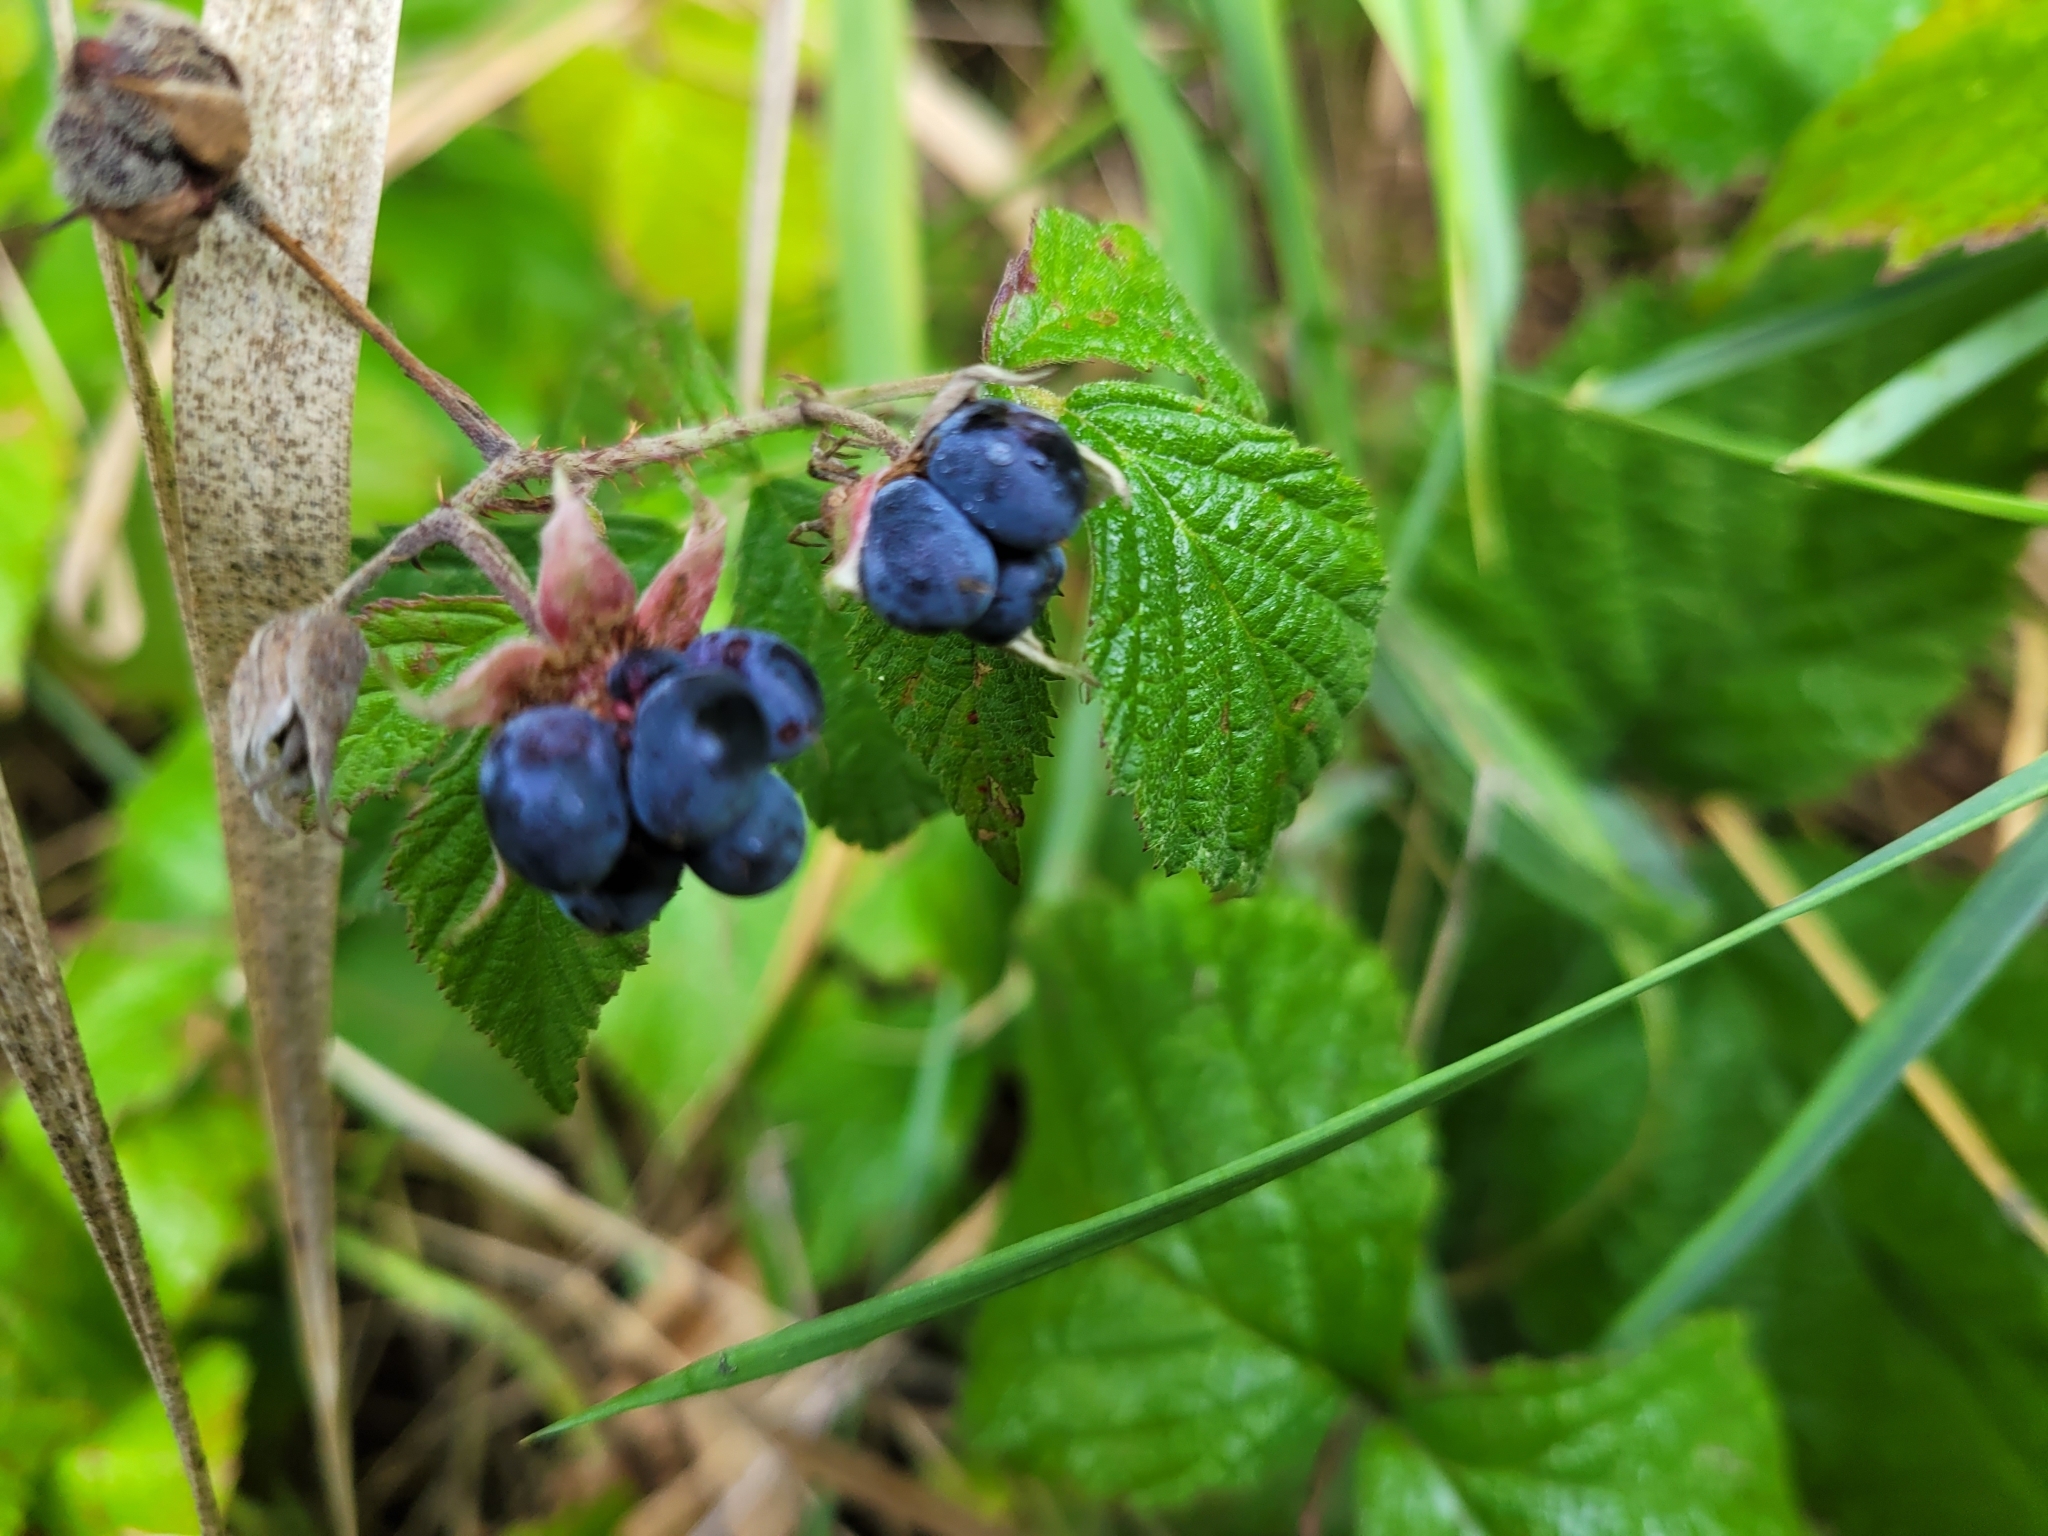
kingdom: Plantae
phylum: Tracheophyta
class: Magnoliopsida
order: Rosales
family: Rosaceae
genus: Rubus
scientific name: Rubus caesius
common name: Dewberry
